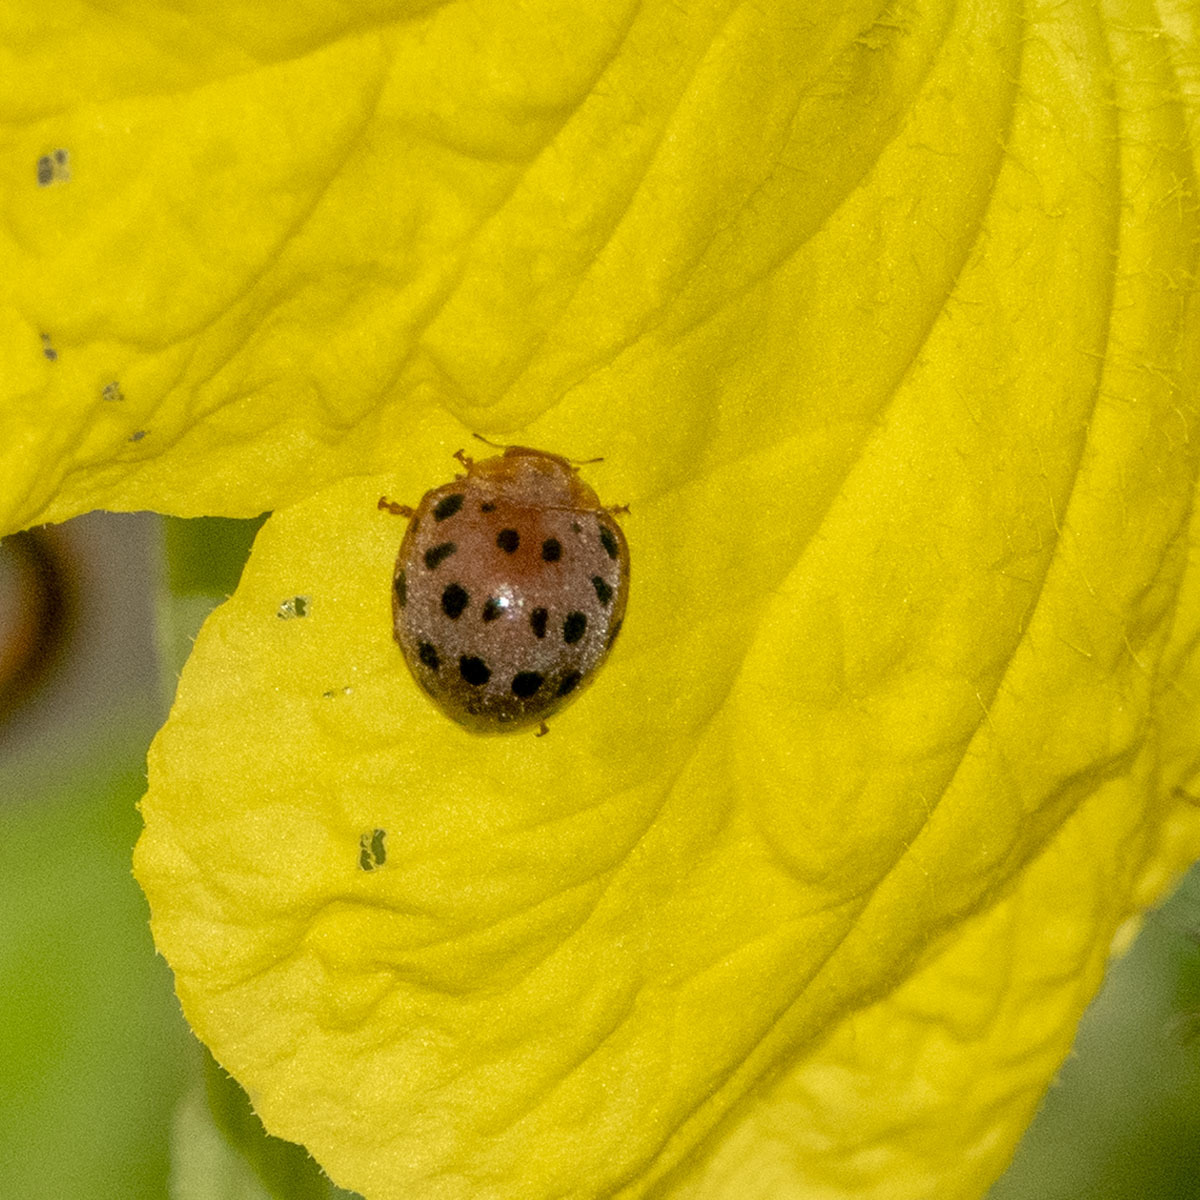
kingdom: Animalia
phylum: Arthropoda
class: Insecta
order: Coleoptera
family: Coccinellidae
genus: Henosepilachna
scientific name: Henosepilachna vigintioctopunctata
